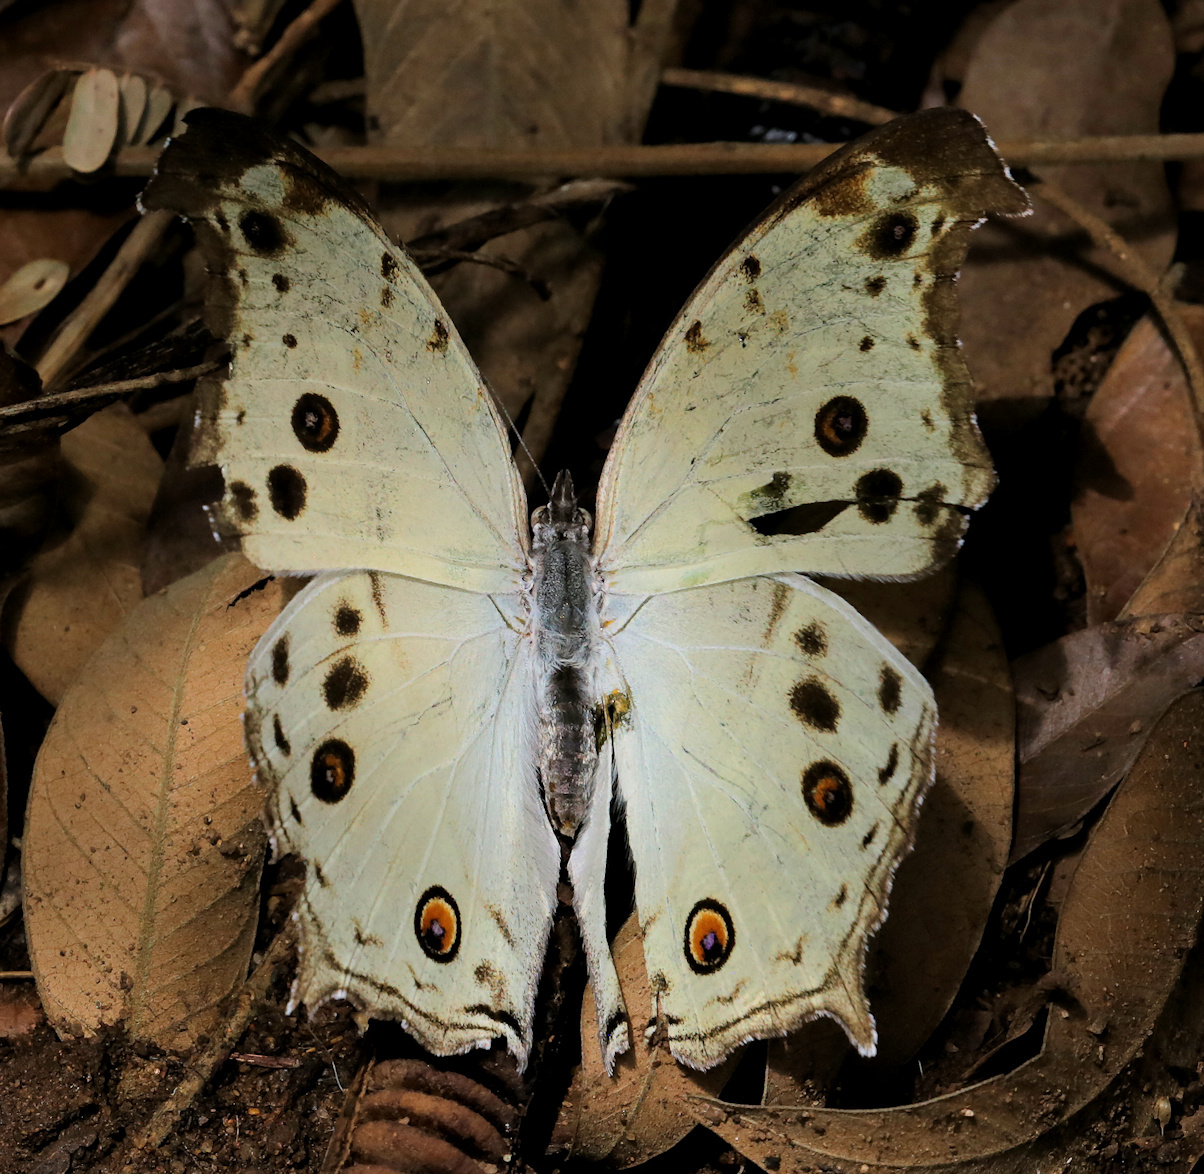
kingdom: Animalia
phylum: Arthropoda
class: Insecta
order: Lepidoptera
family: Nymphalidae
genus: Salamis
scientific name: Salamis Protogoniomorpha parhassus
